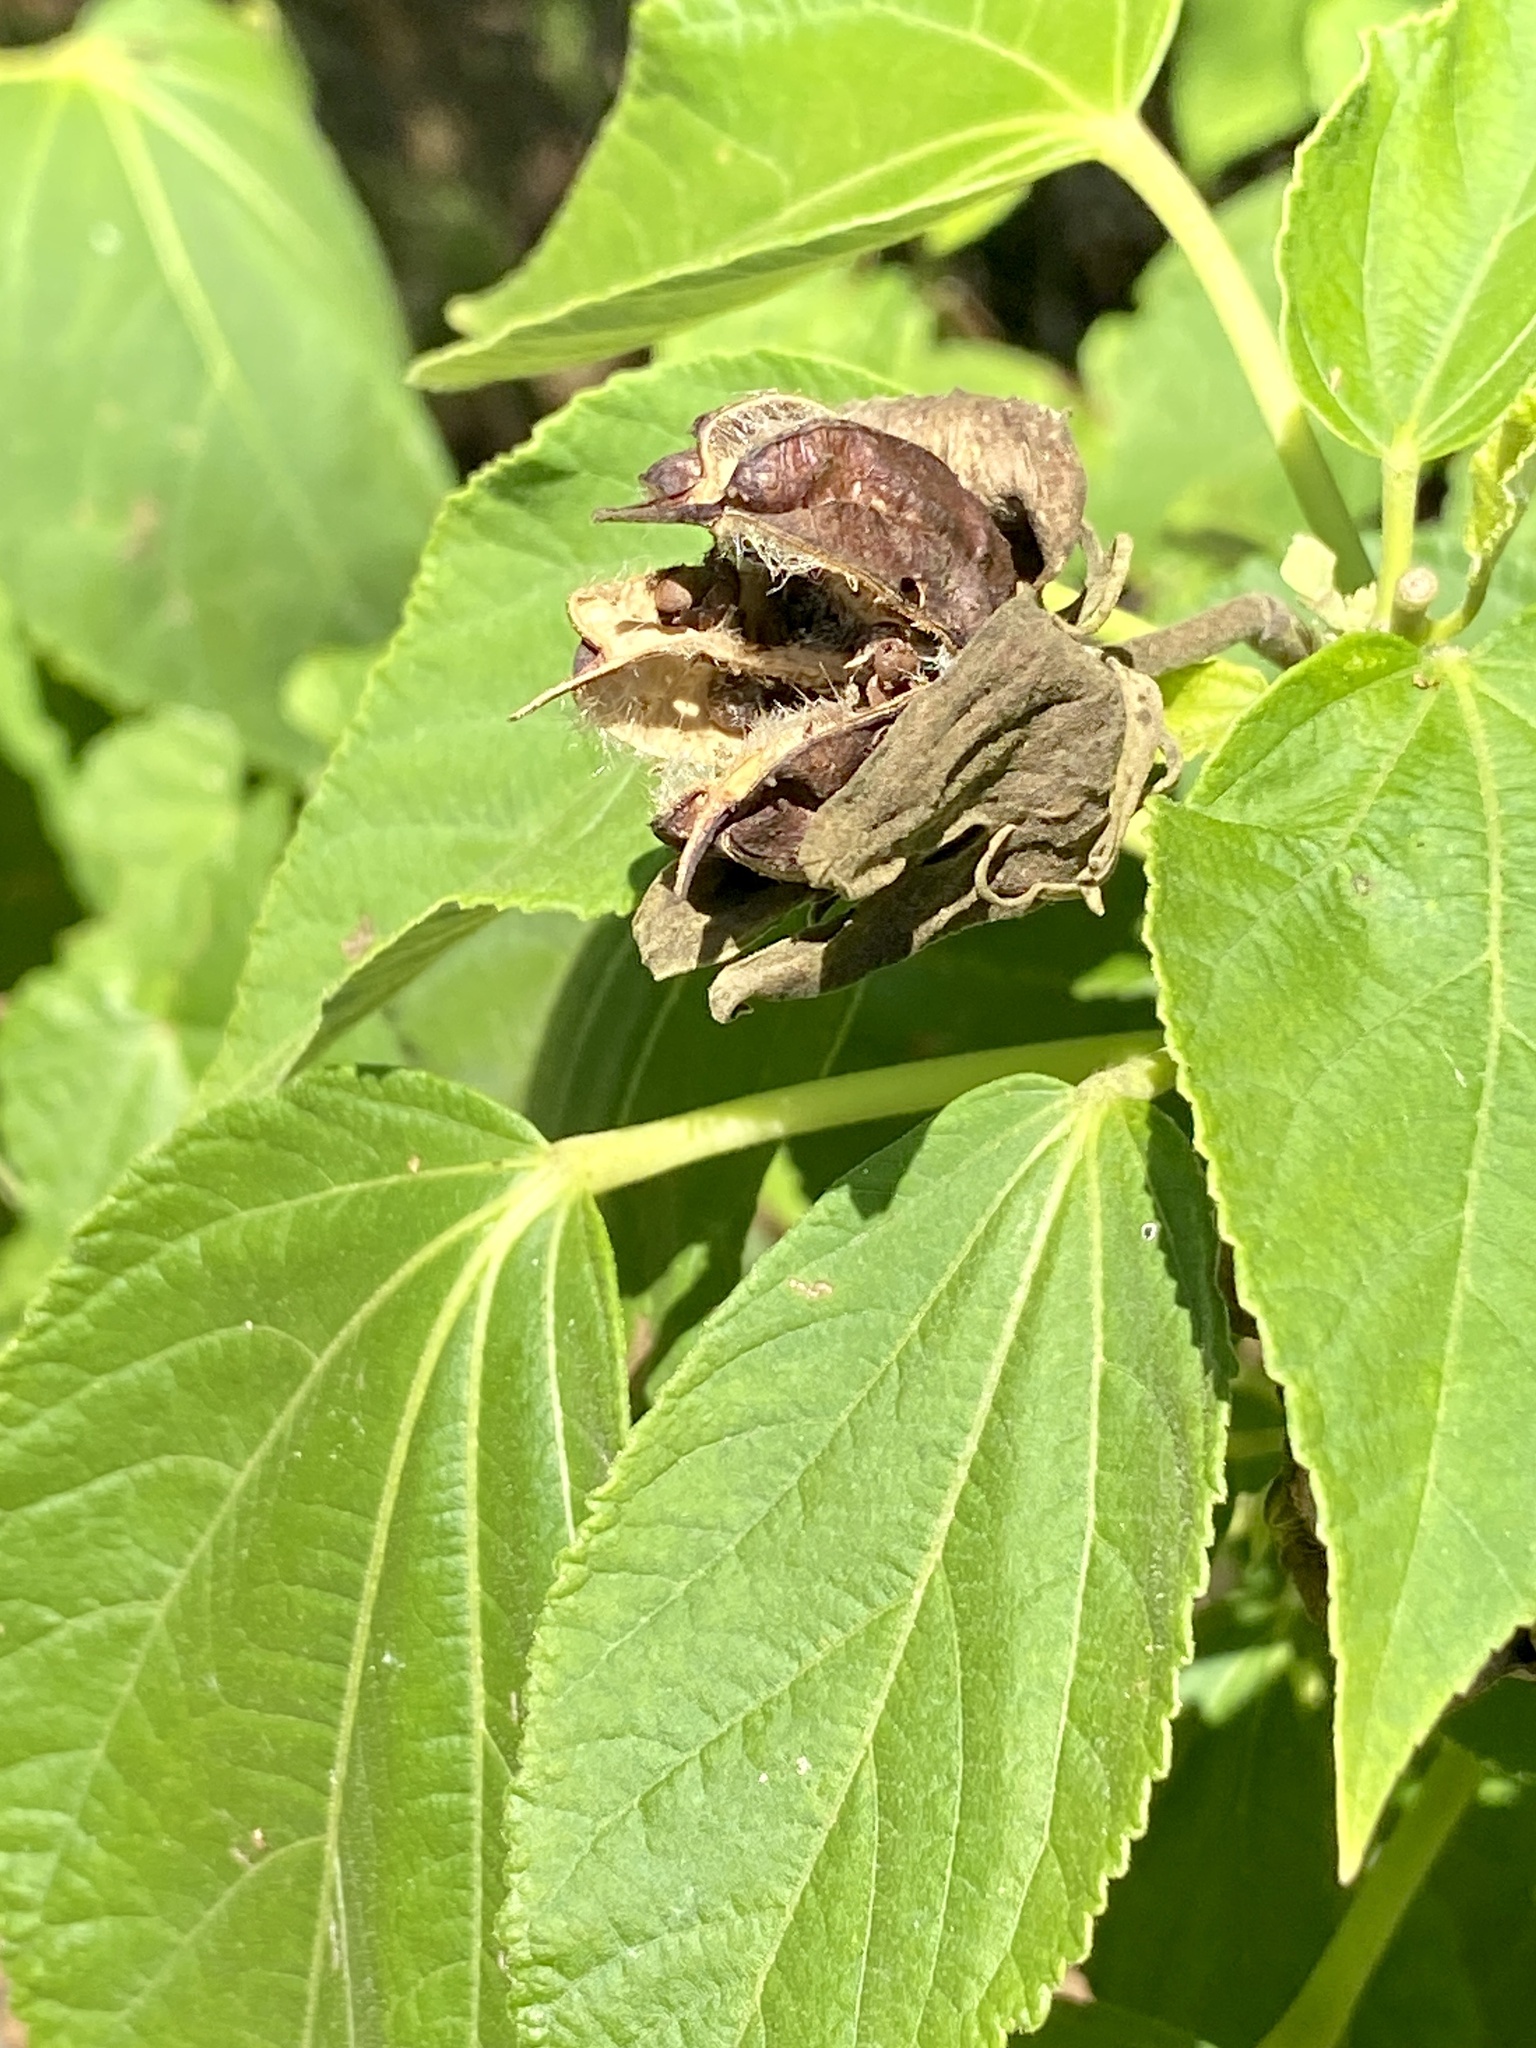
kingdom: Plantae
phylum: Tracheophyta
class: Magnoliopsida
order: Malvales
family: Malvaceae
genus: Hibiscus
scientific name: Hibiscus moscheutos
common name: Common rose-mallow
